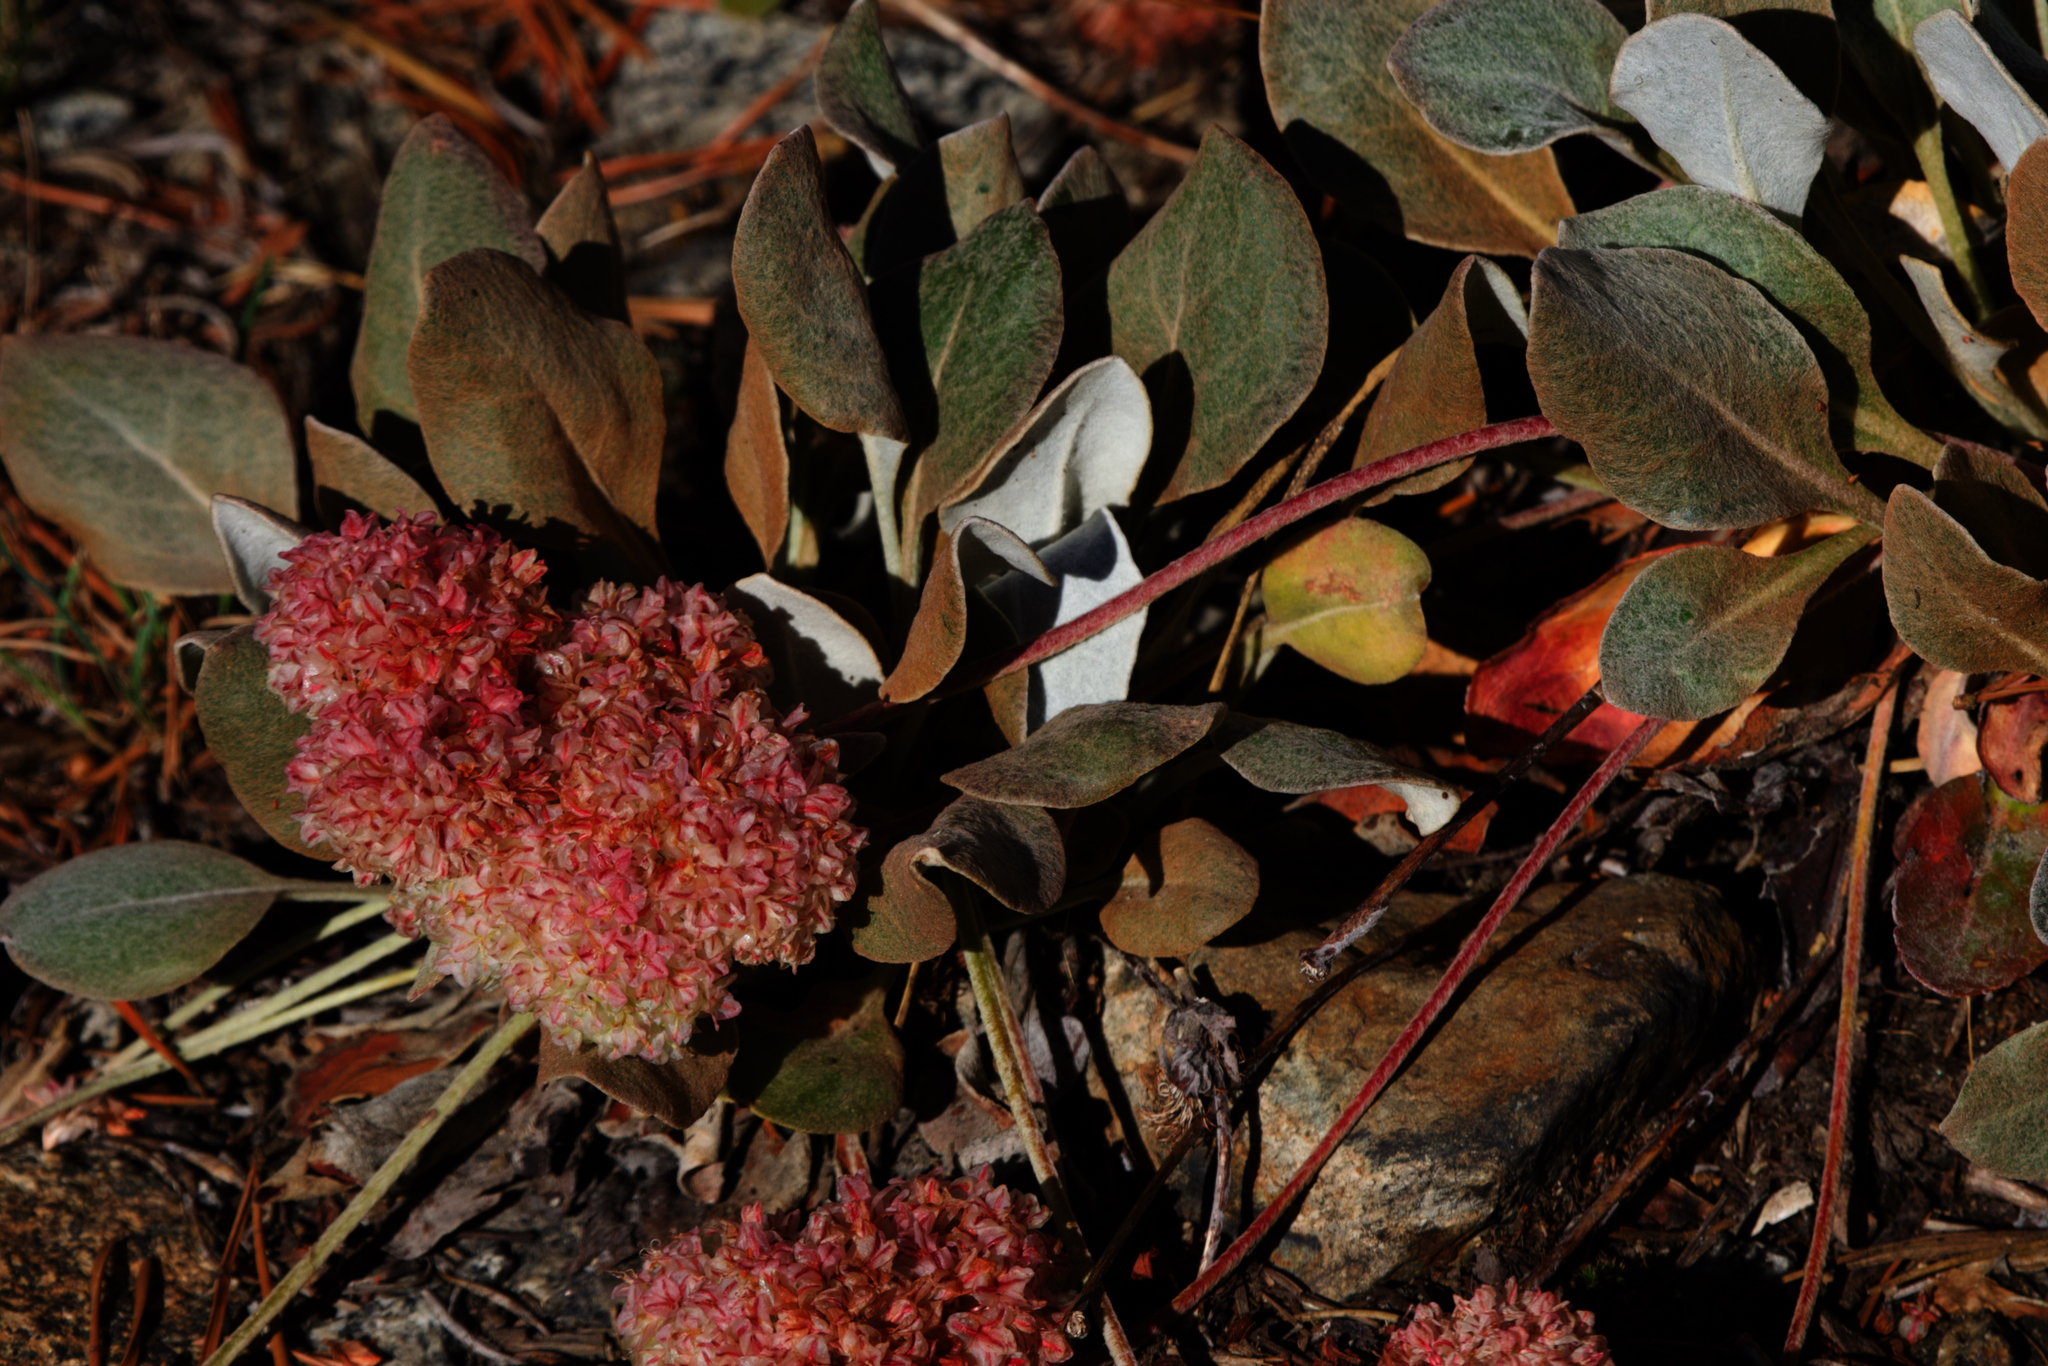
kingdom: Plantae
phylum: Tracheophyta
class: Magnoliopsida
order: Caryophyllales
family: Polygonaceae
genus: Eriogonum
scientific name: Eriogonum lobbii
